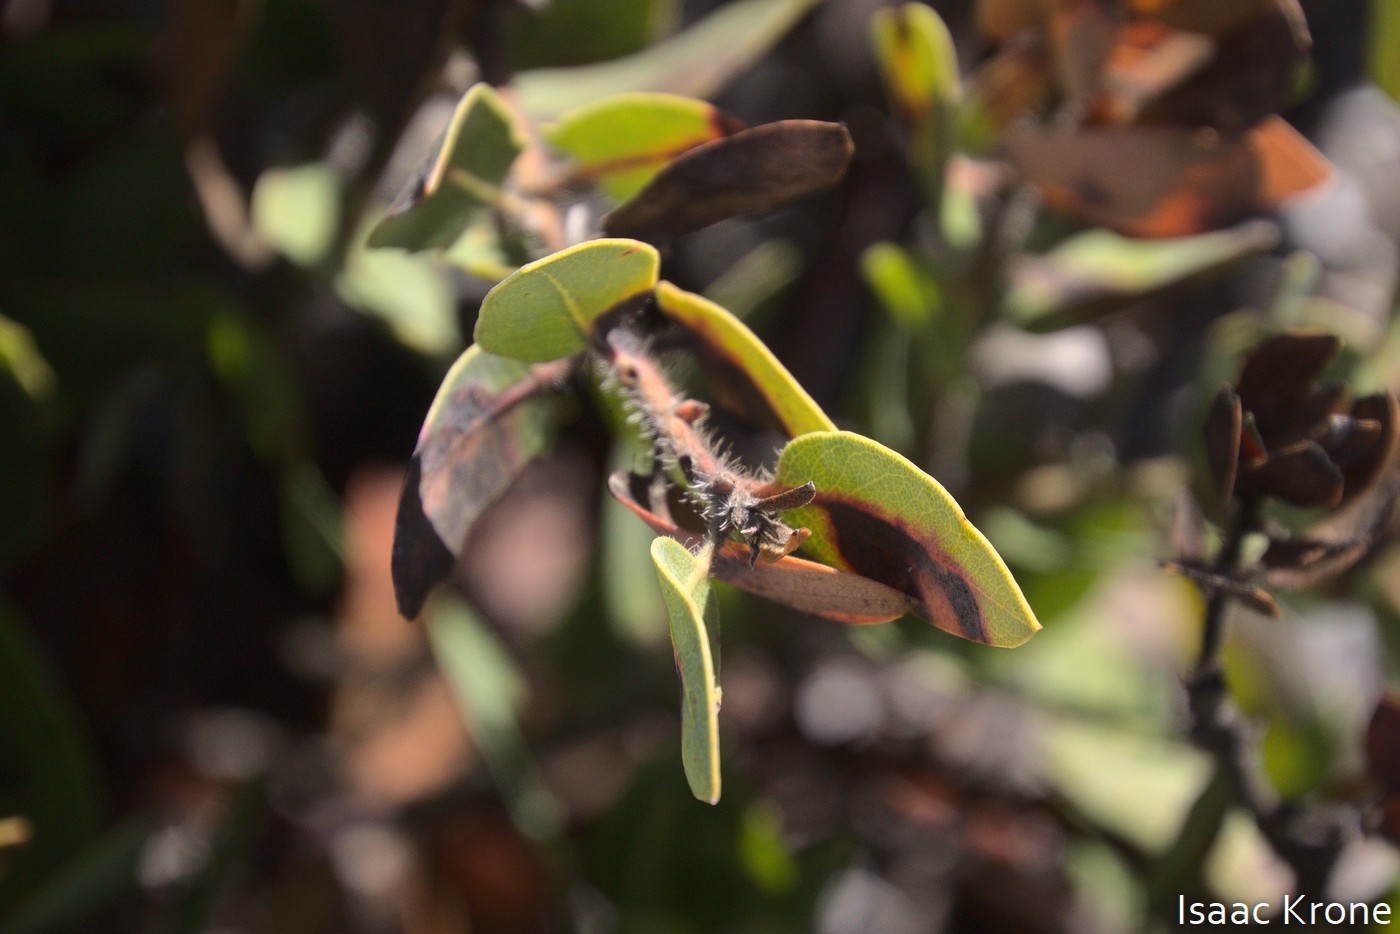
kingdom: Plantae
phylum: Tracheophyta
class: Magnoliopsida
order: Ericales
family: Ericaceae
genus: Arctostaphylos
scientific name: Arctostaphylos catalinae
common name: Santa catalina island manzanita
